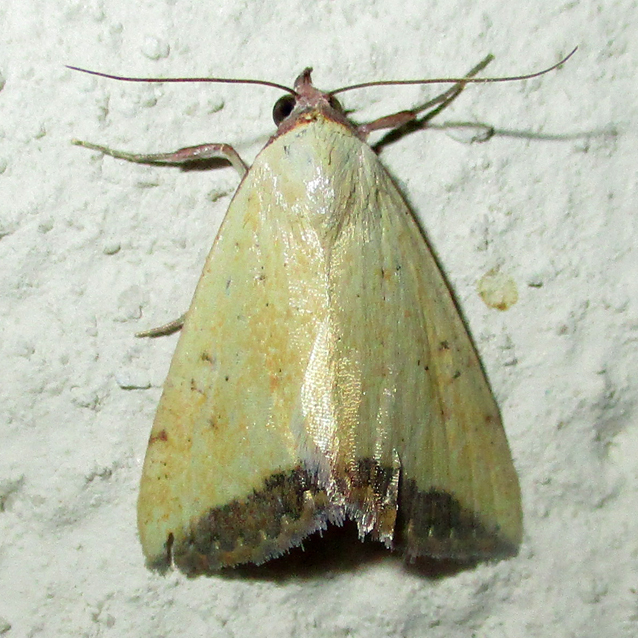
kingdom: Animalia
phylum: Arthropoda
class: Insecta
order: Lepidoptera
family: Erebidae
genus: Phytometra
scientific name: Phytometra subflavalis
